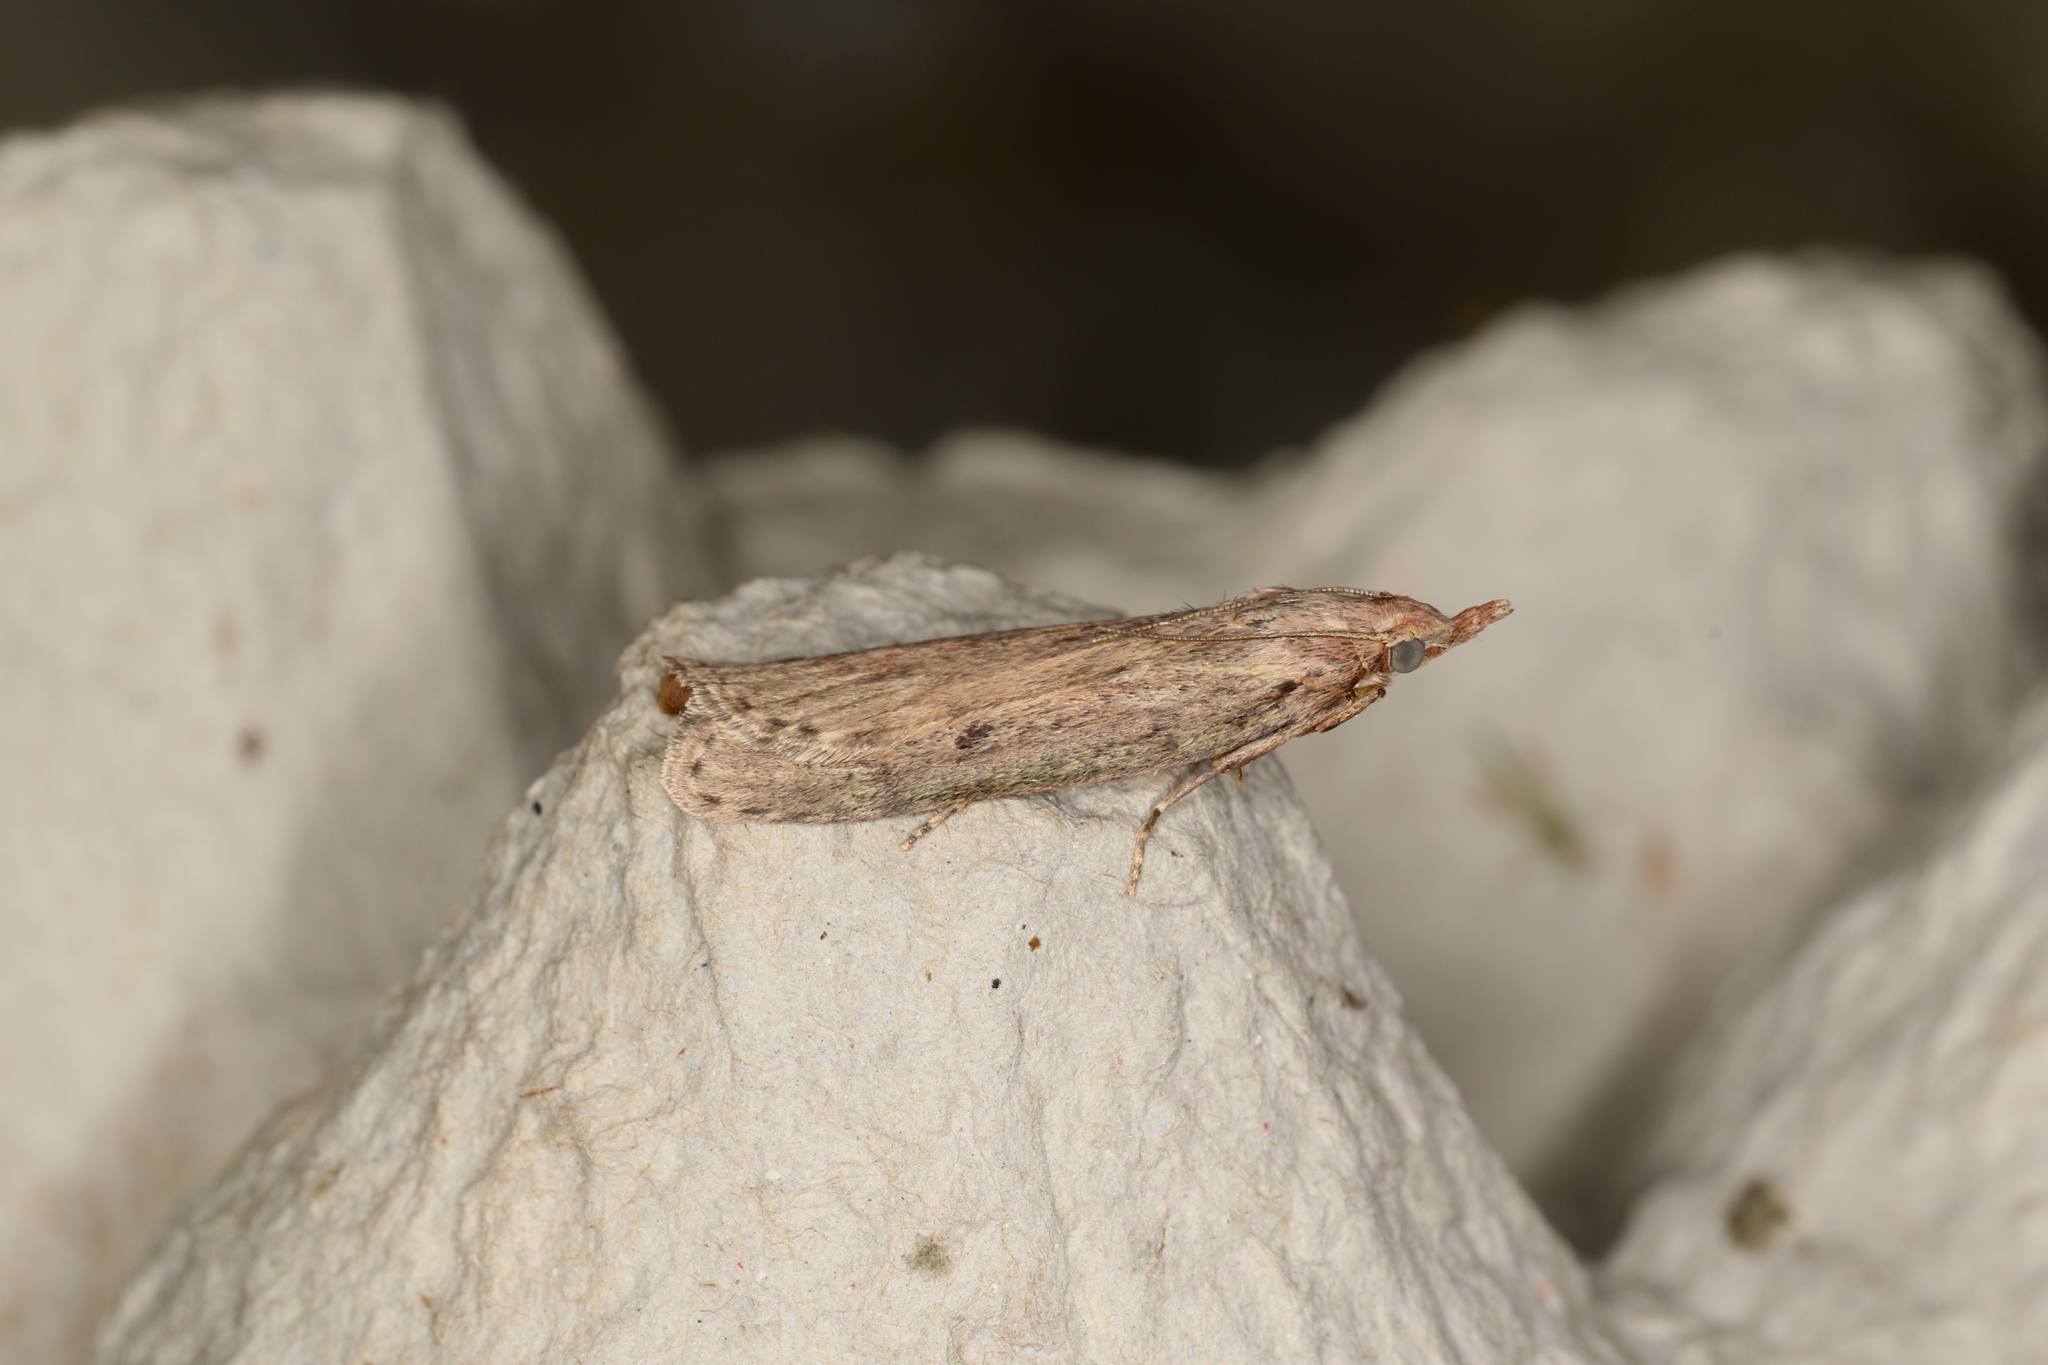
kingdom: Animalia
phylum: Arthropoda
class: Insecta
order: Lepidoptera
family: Pyralidae
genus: Aphomia
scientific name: Aphomia sociella
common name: Bee moth
